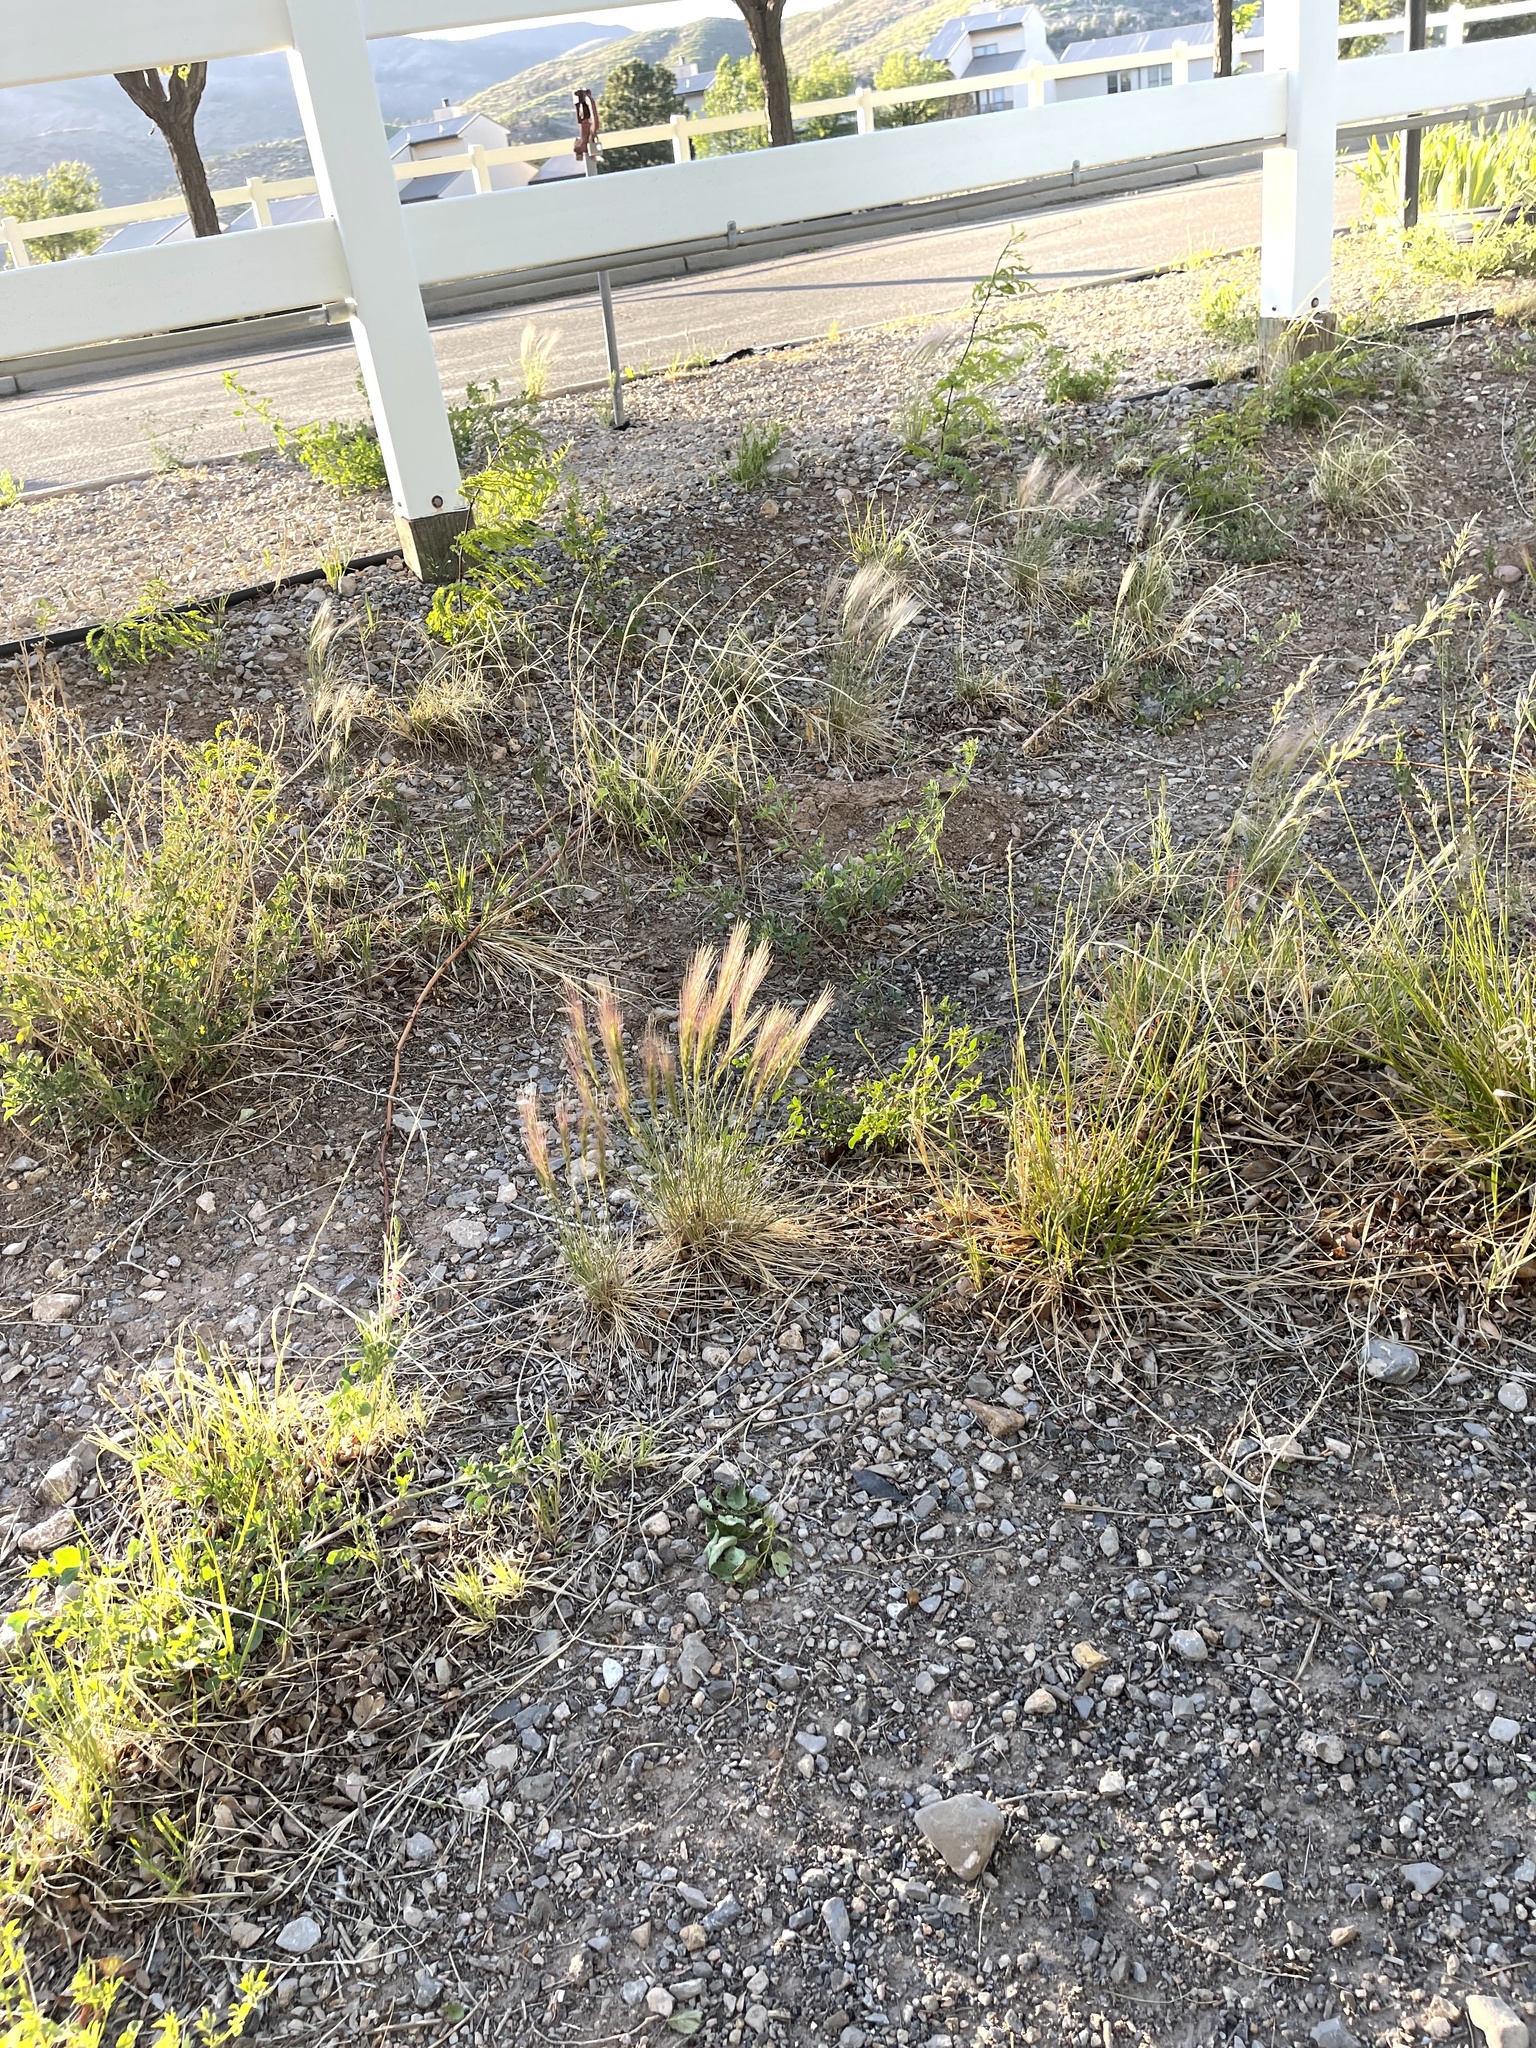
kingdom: Plantae
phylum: Tracheophyta
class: Liliopsida
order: Poales
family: Poaceae
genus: Hordeum
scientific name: Hordeum jubatum
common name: Foxtail barley
